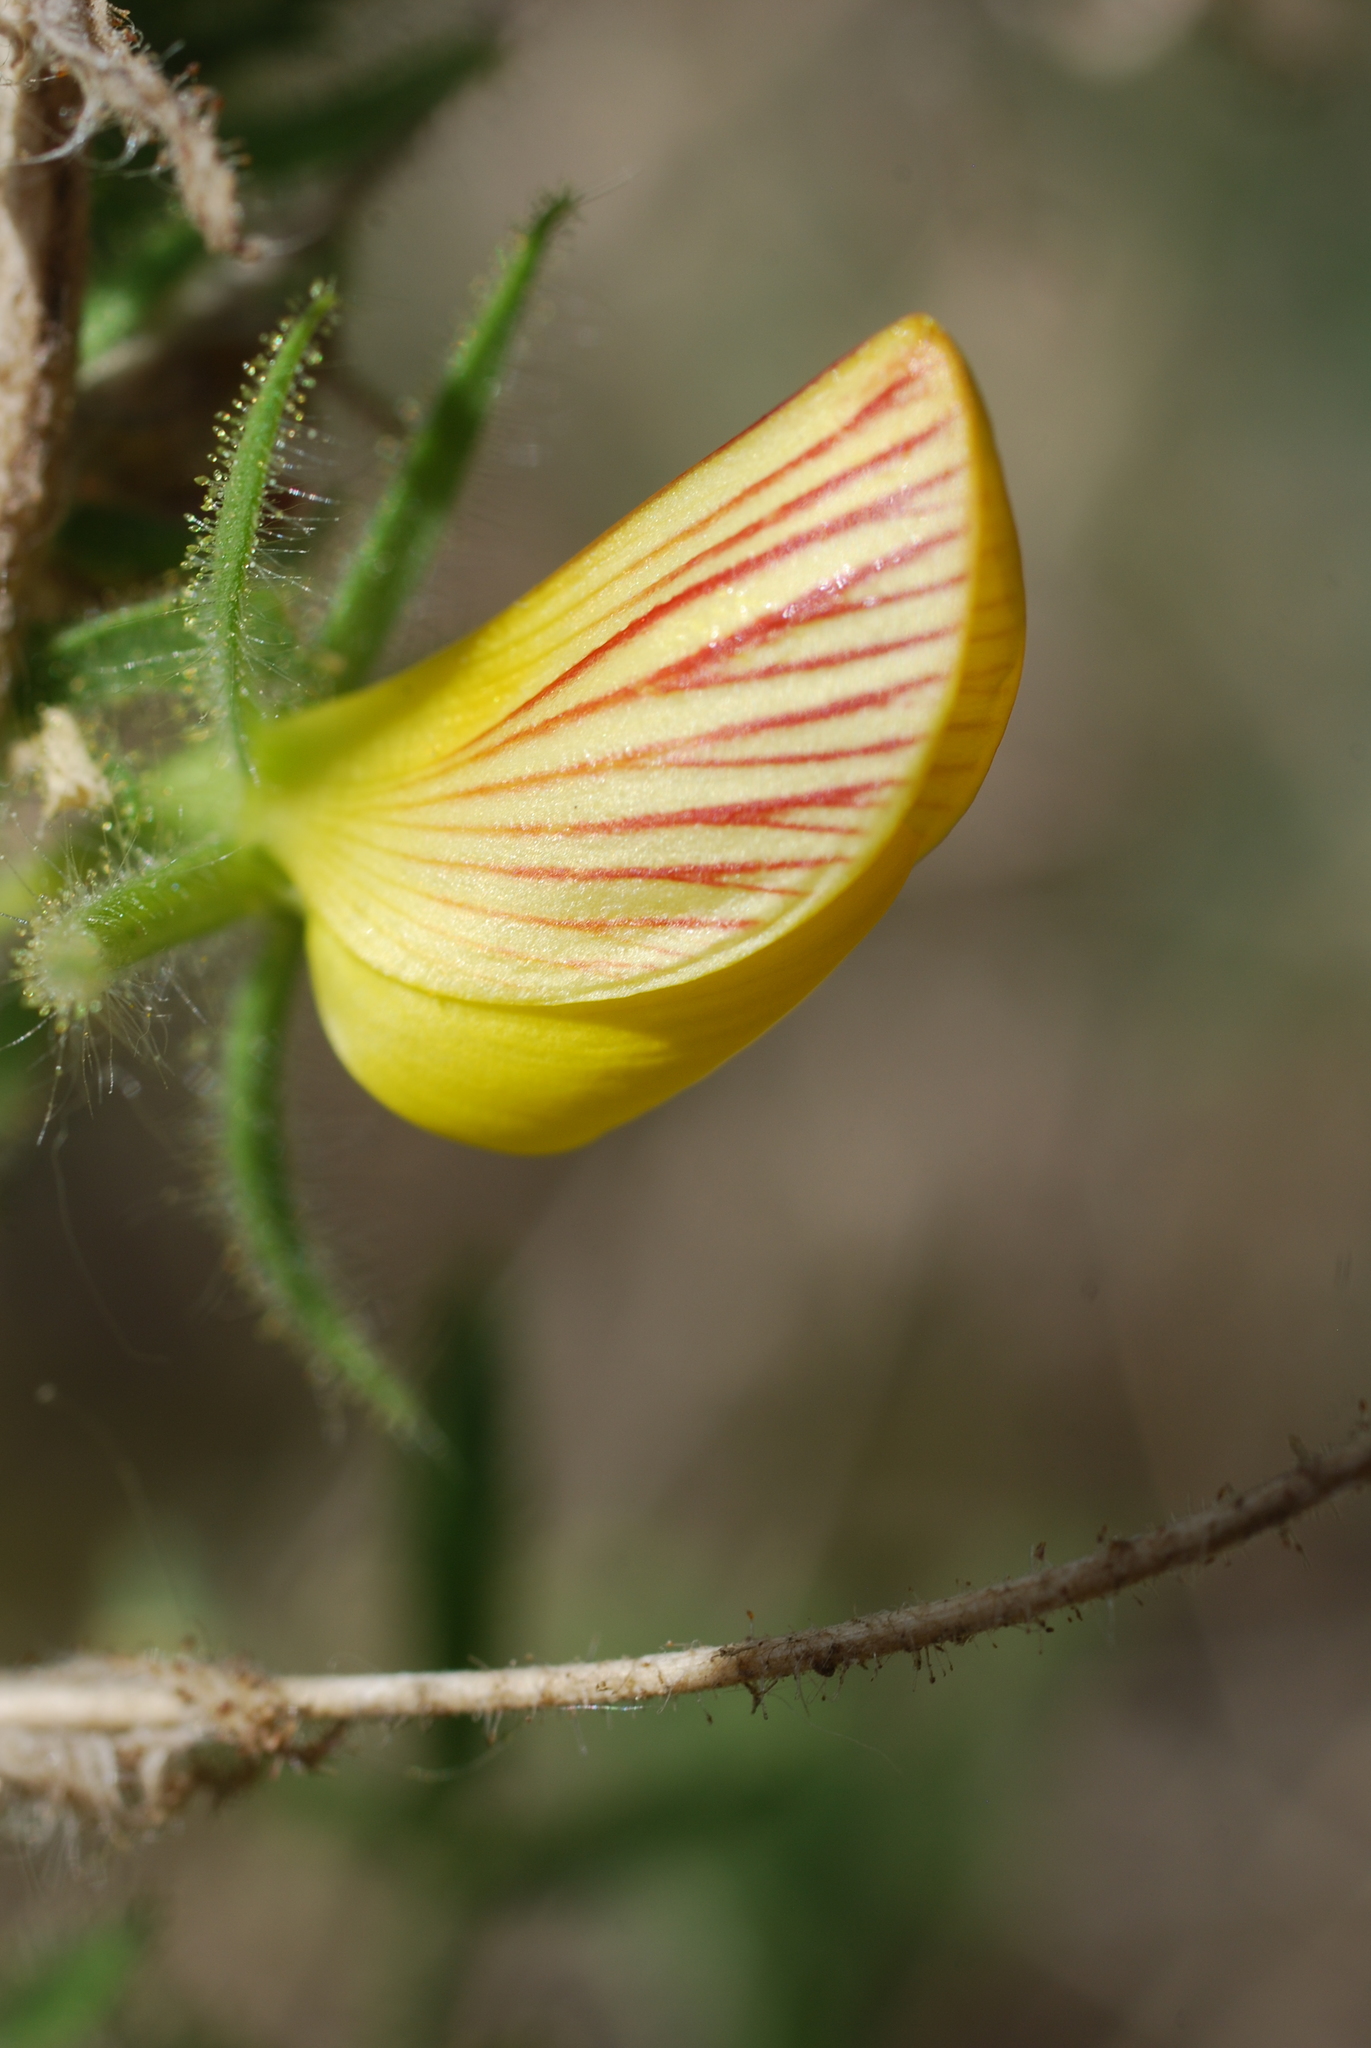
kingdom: Plantae
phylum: Tracheophyta
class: Magnoliopsida
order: Fabales
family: Fabaceae
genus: Ononis
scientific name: Ononis natrix
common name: Yellow restharrow
